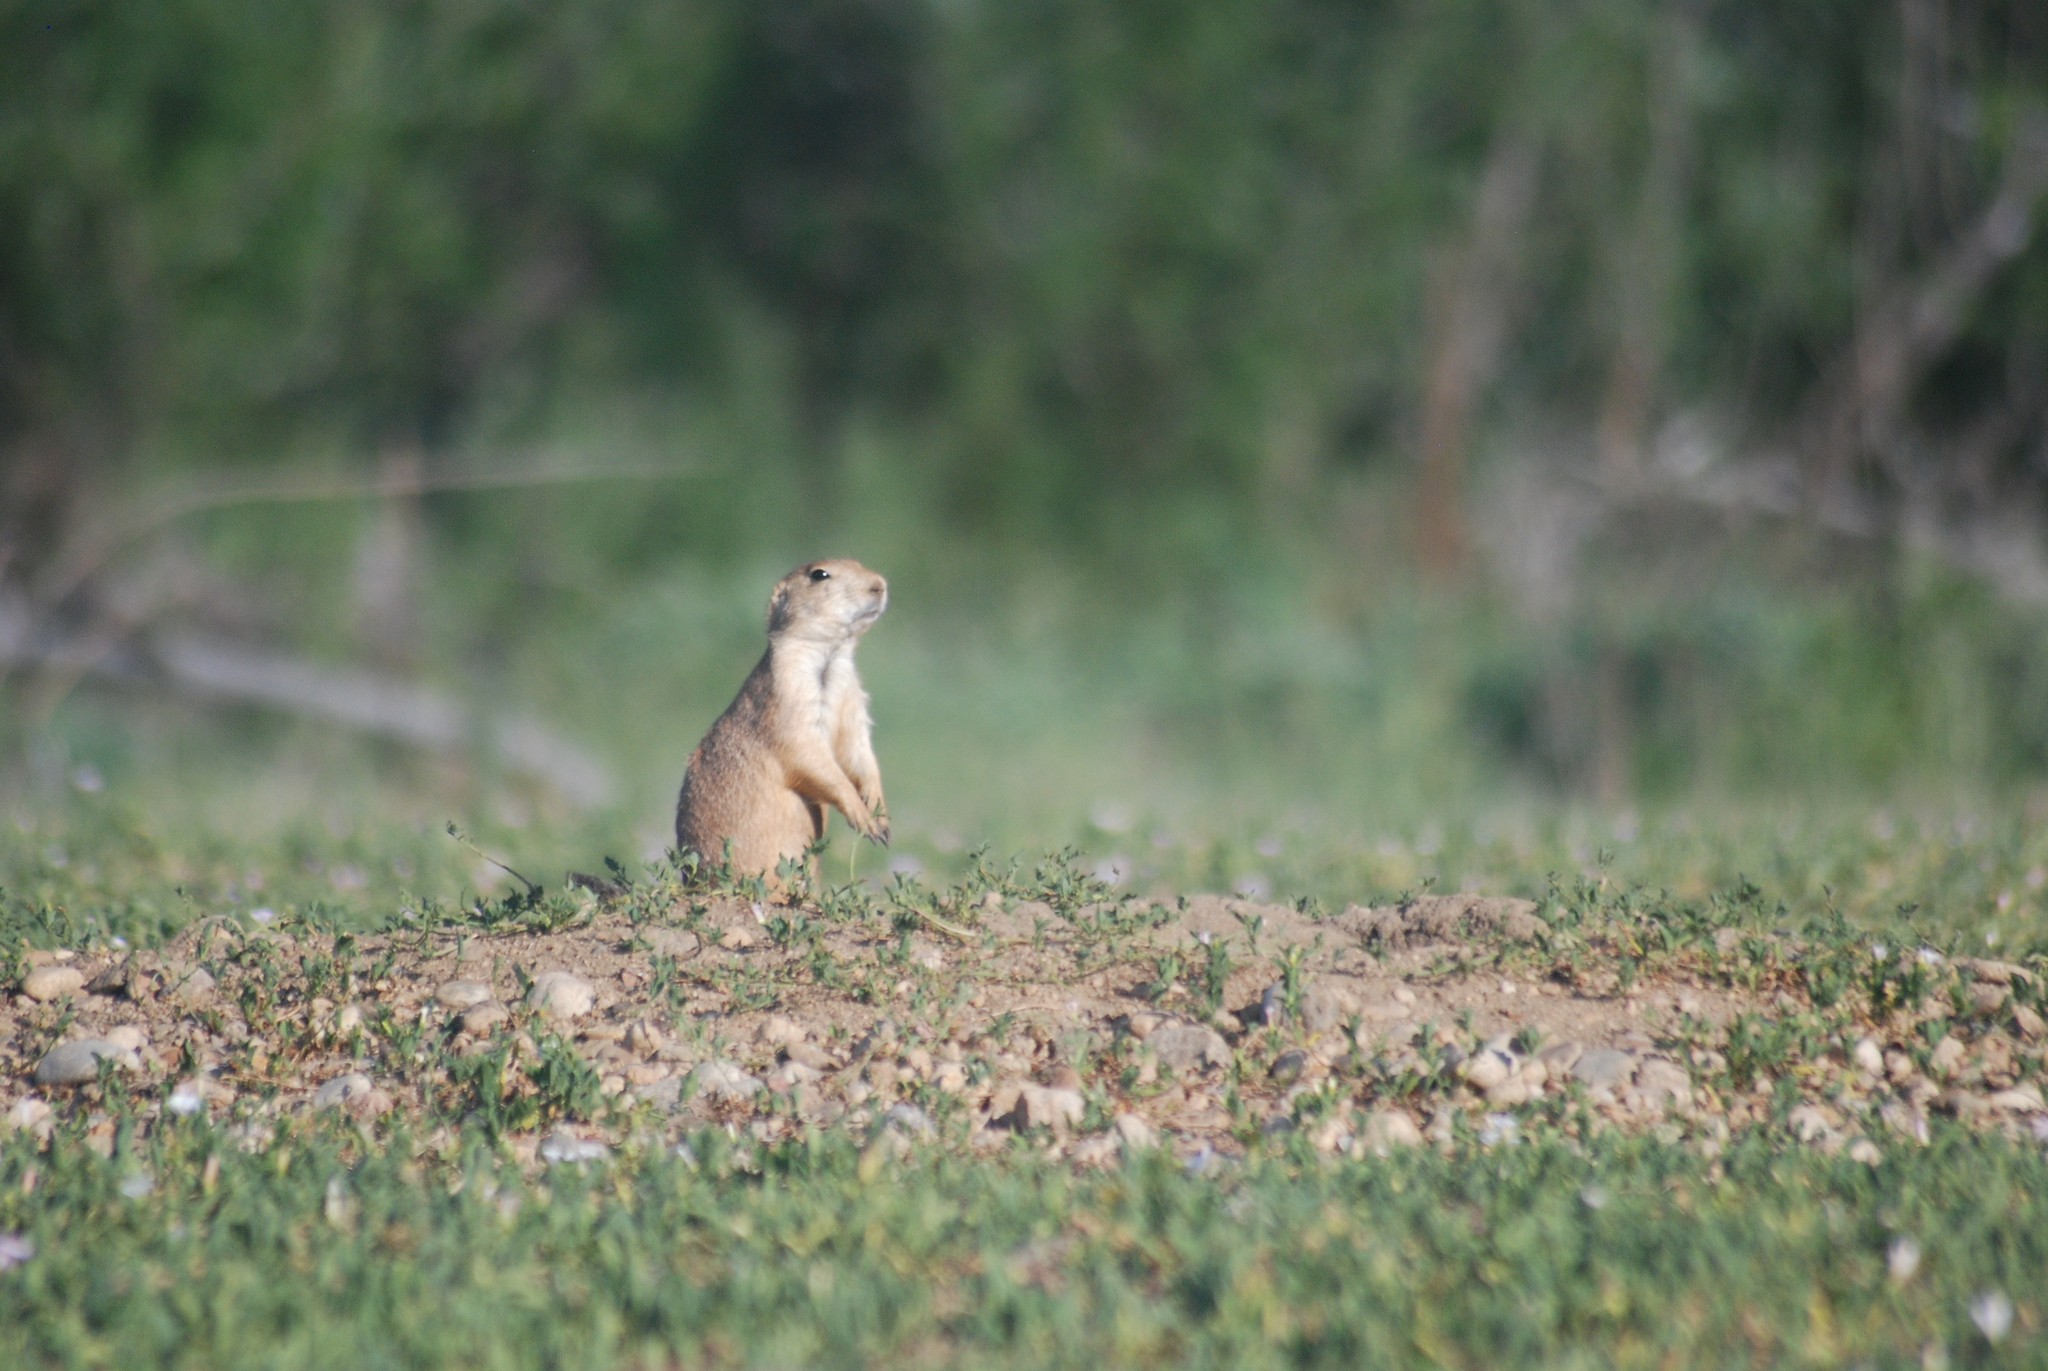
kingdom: Animalia
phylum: Chordata
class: Mammalia
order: Rodentia
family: Sciuridae
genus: Cynomys
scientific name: Cynomys ludovicianus
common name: Black-tailed prairie dog
